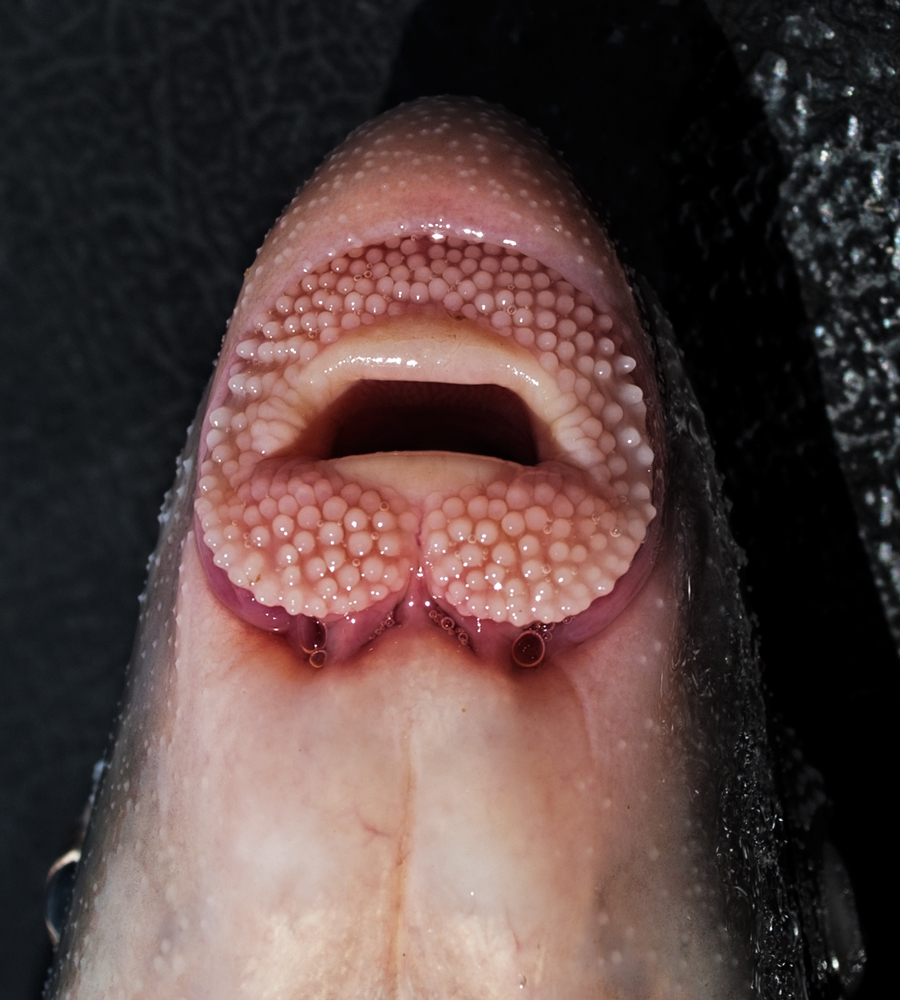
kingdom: Animalia
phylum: Chordata
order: Cypriniformes
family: Catostomidae
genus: Cycleptus
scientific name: Cycleptus elongatus
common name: Blue sucker
